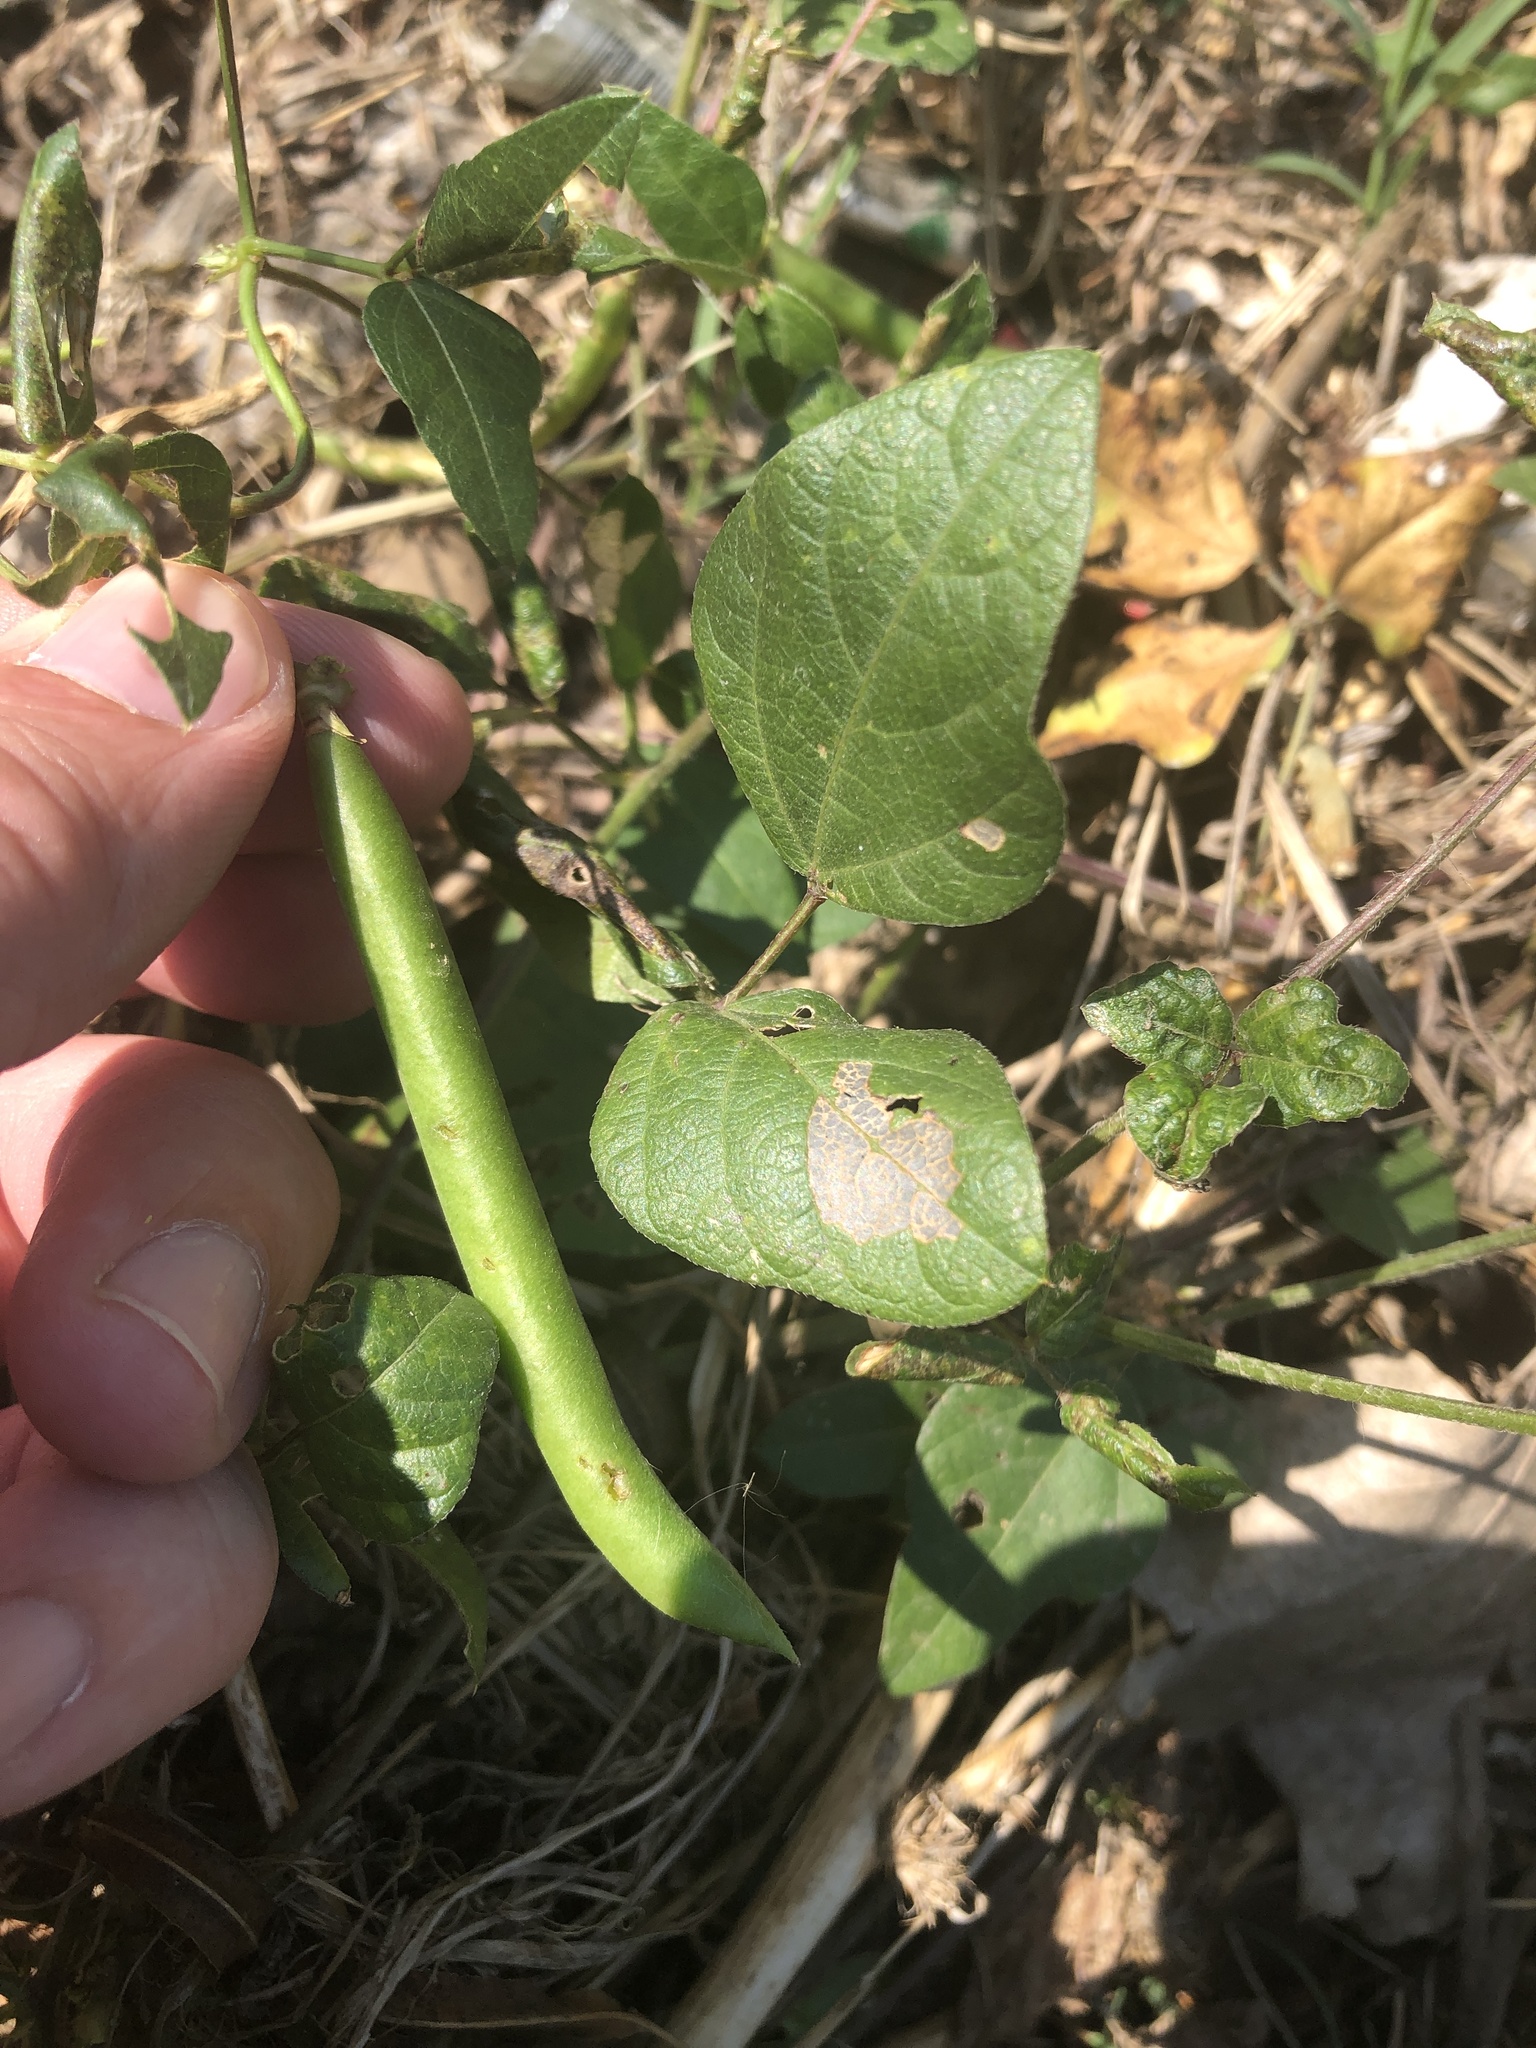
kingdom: Plantae
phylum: Tracheophyta
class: Magnoliopsida
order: Fabales
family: Fabaceae
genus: Strophostyles
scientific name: Strophostyles helvola
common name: Trailing wild bean
